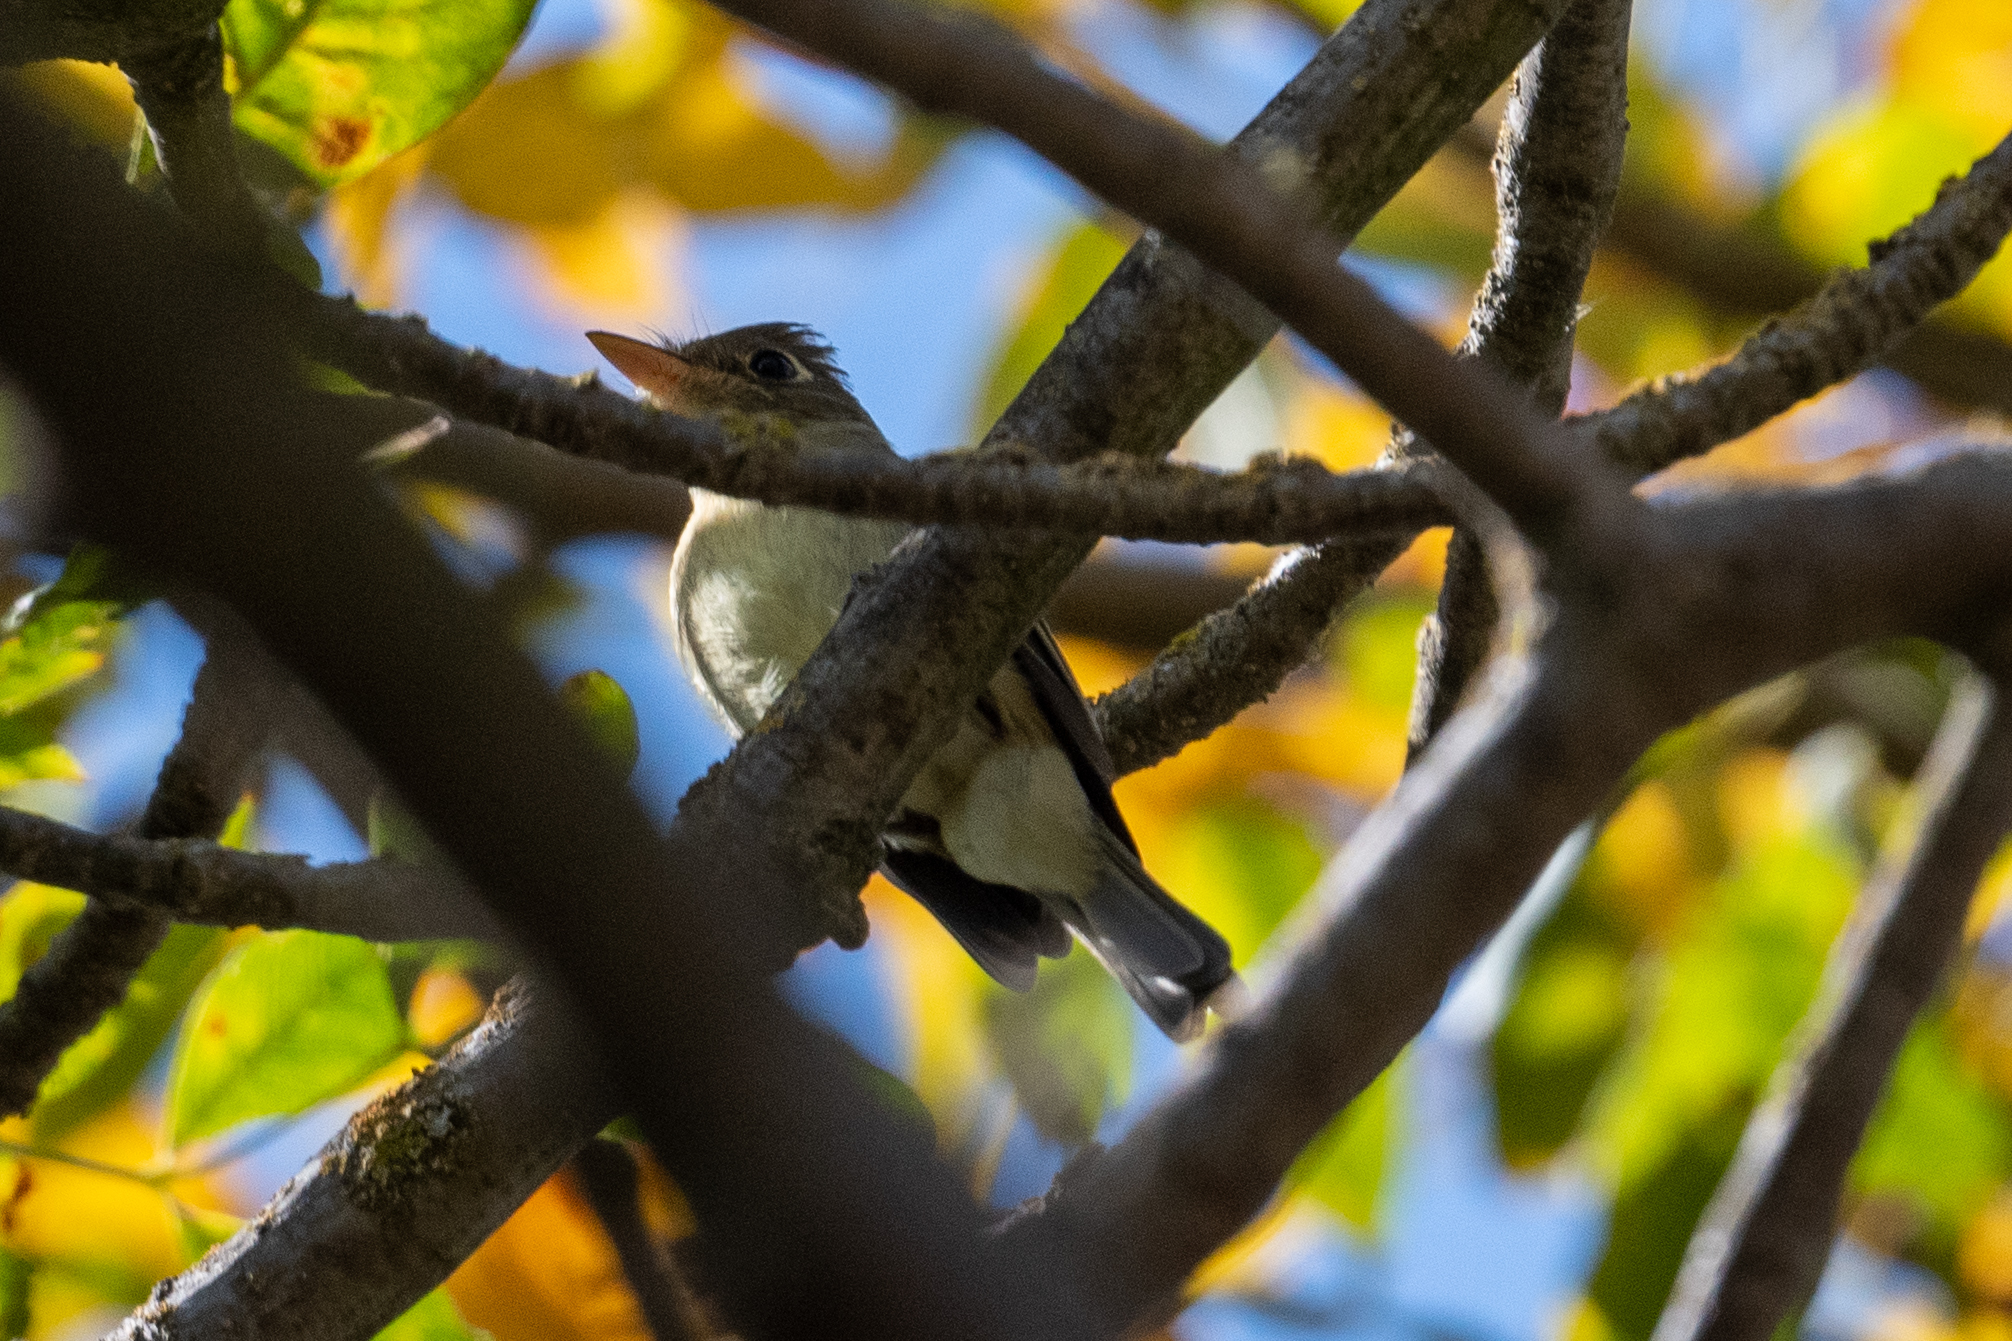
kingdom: Animalia
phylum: Chordata
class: Aves
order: Passeriformes
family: Tyrannidae
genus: Empidonax
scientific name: Empidonax difficilis
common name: Pacific-slope flycatcher
